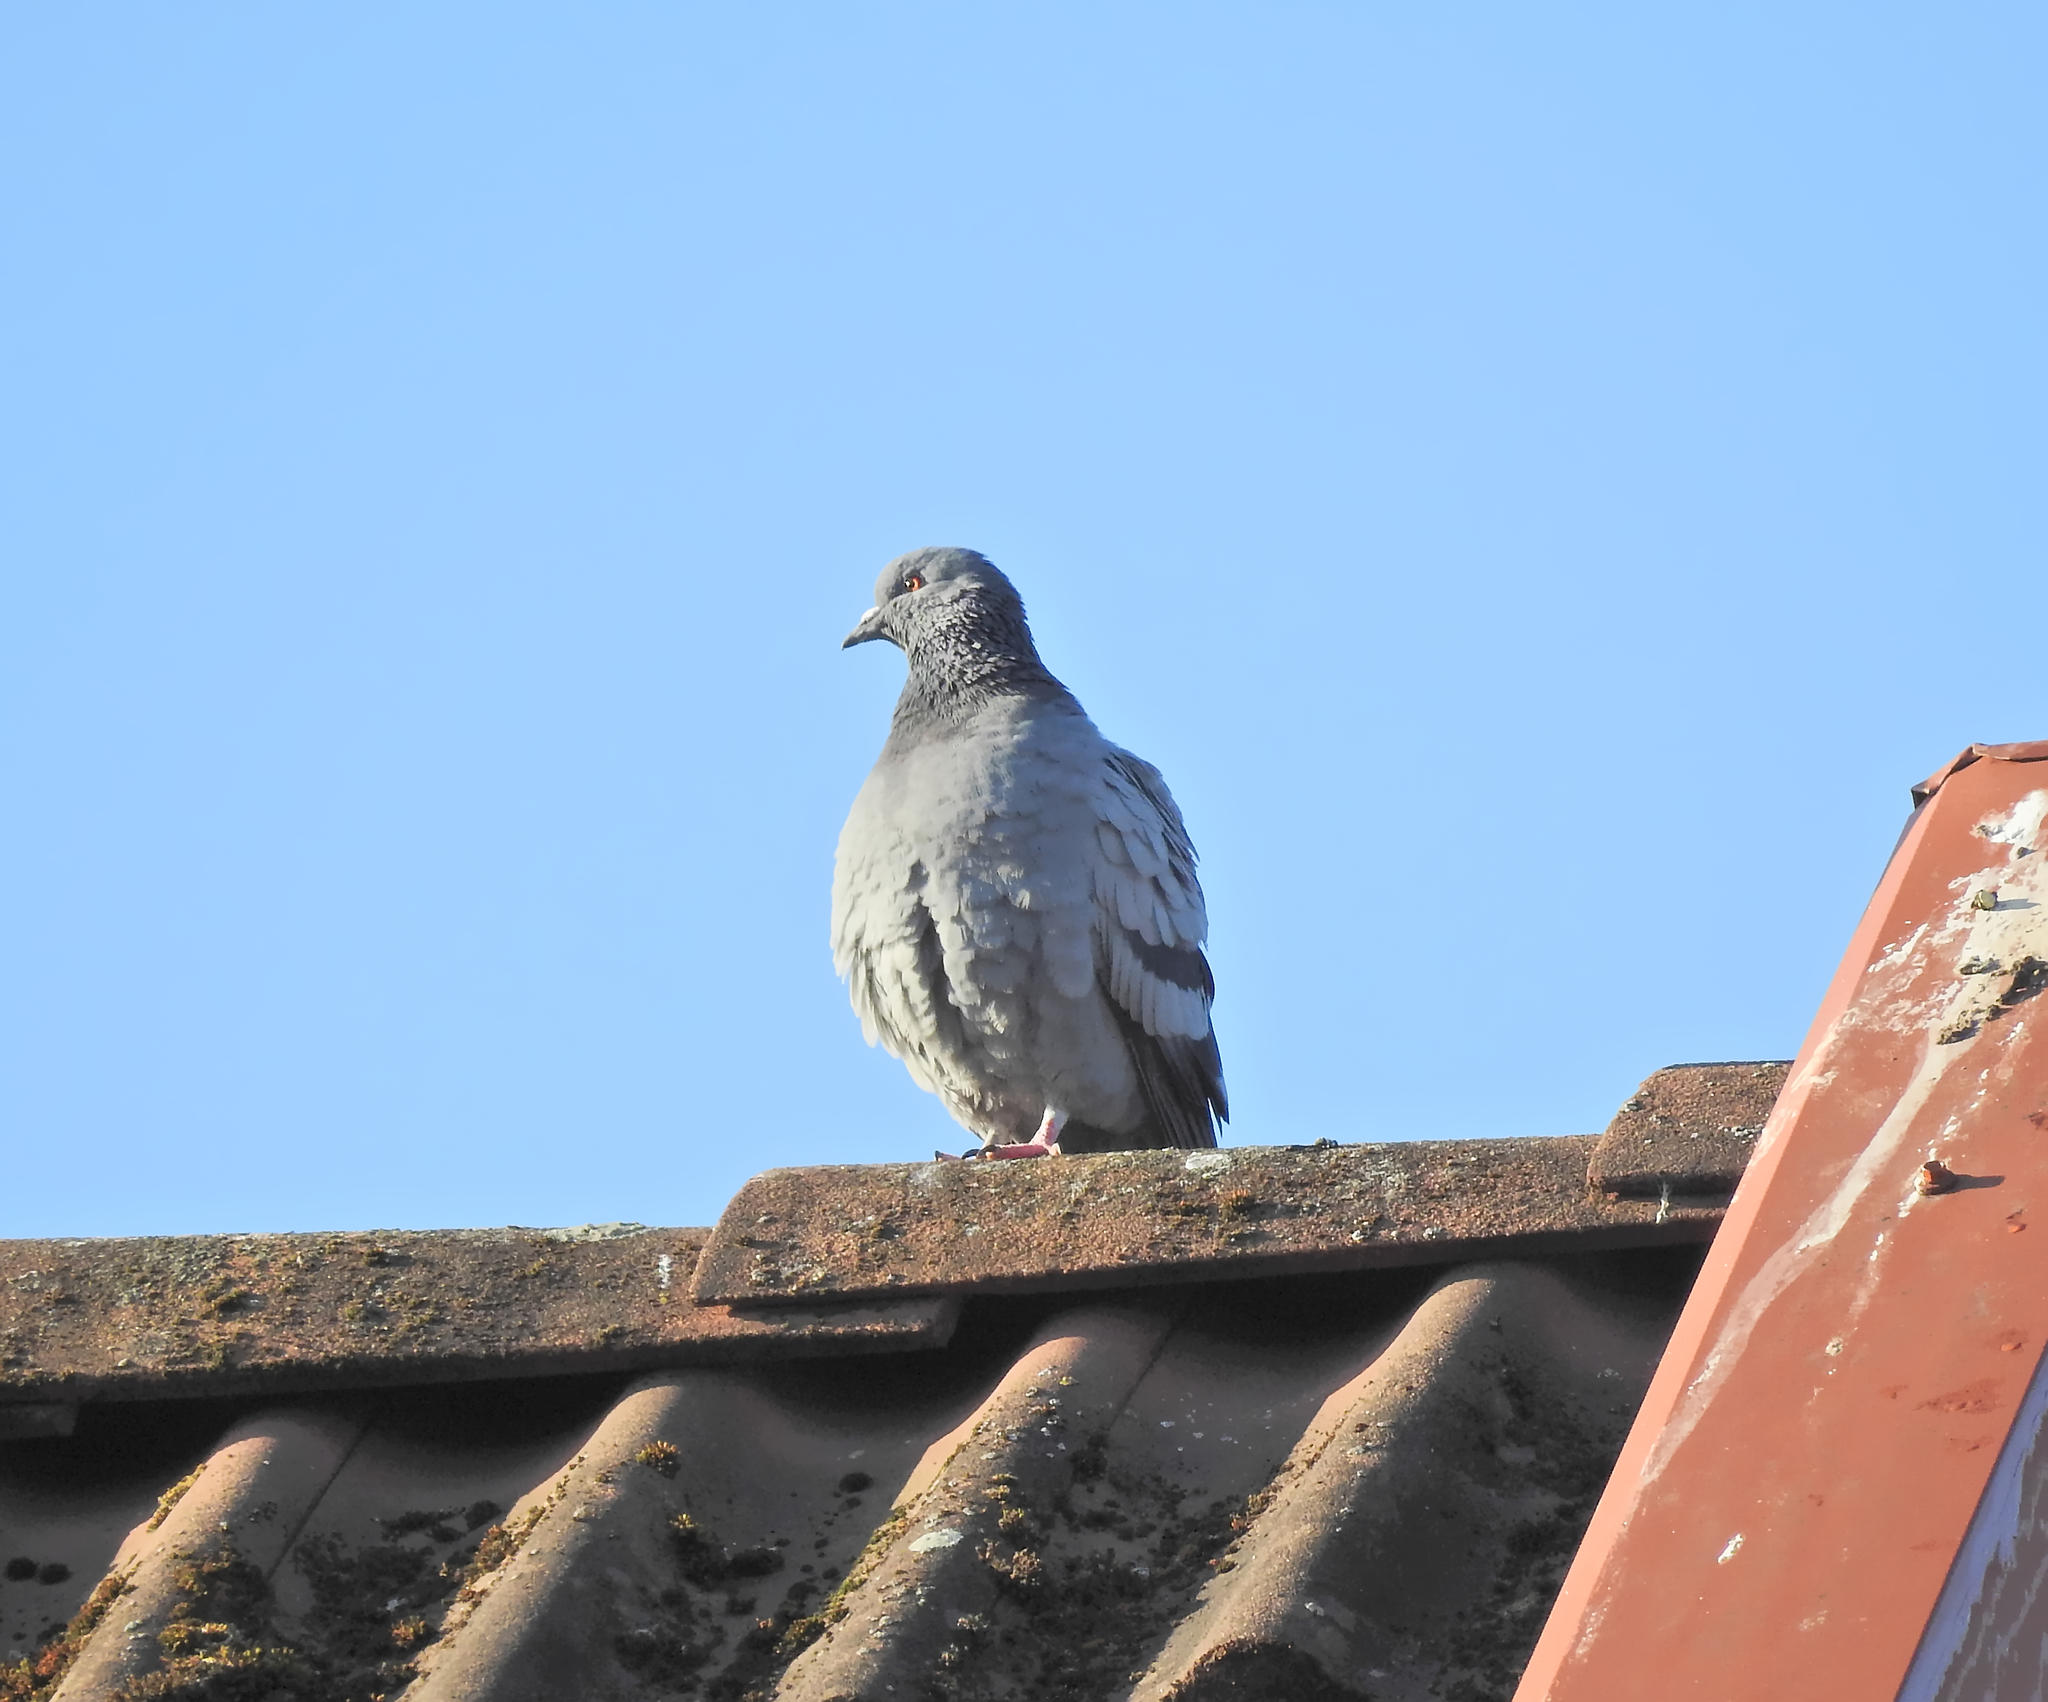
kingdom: Animalia
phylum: Chordata
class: Aves
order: Columbiformes
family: Columbidae
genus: Columba
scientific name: Columba livia
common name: Rock pigeon
